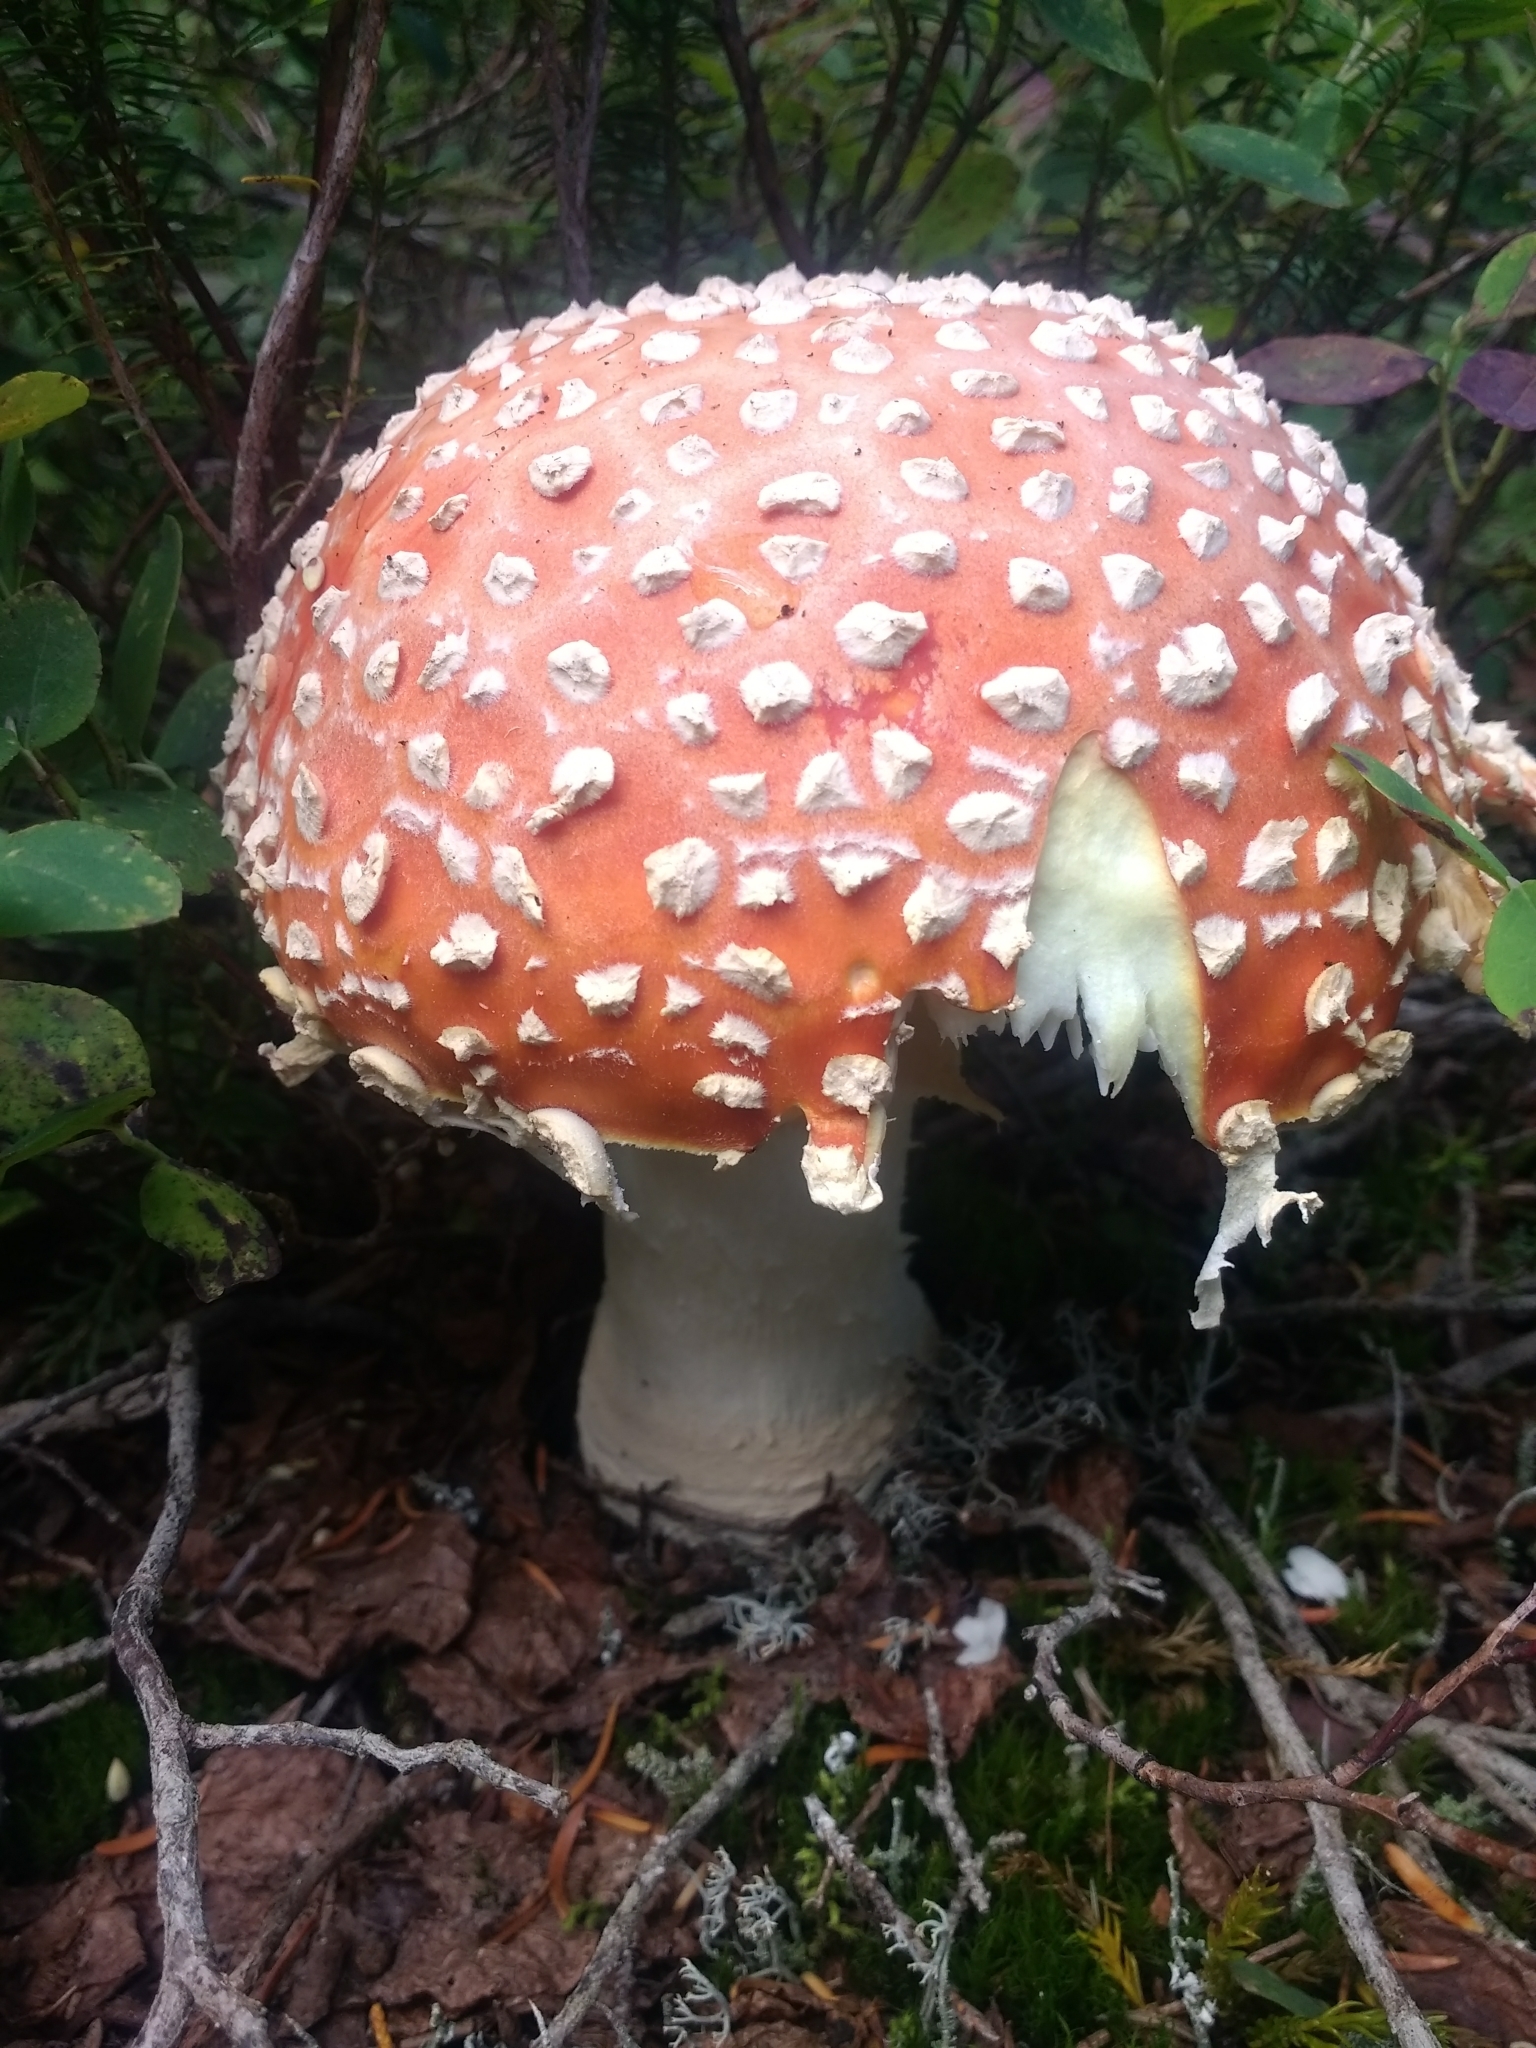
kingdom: Fungi
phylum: Basidiomycota
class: Agaricomycetes
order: Agaricales
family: Amanitaceae
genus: Amanita
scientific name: Amanita muscaria
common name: Fly agaric
